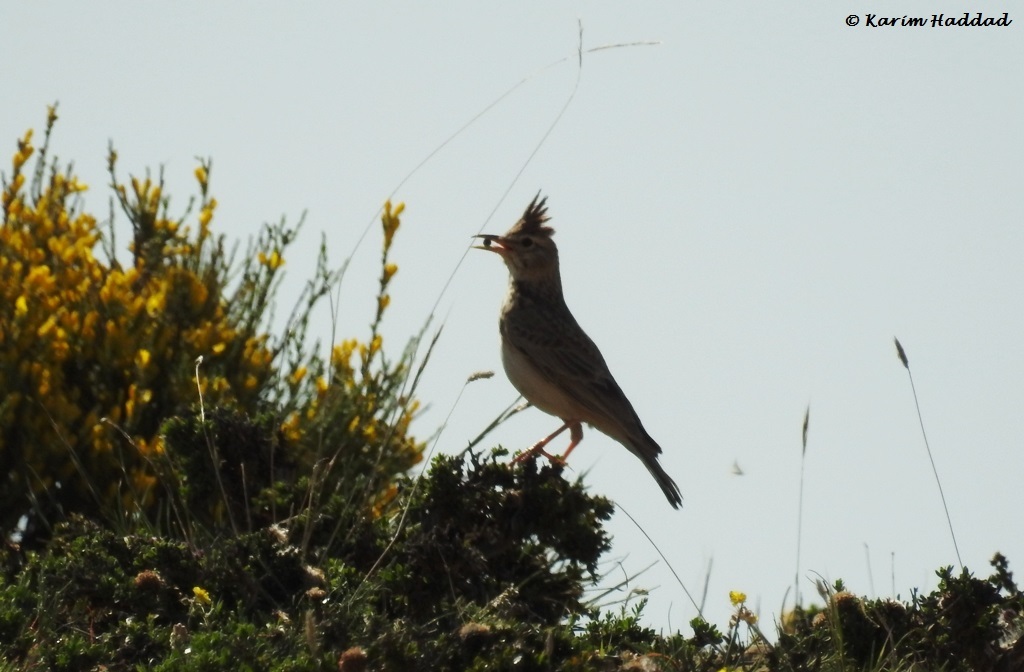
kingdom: Animalia
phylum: Chordata
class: Aves
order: Passeriformes
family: Alaudidae
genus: Galerida
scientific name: Galerida cristata
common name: Crested lark
